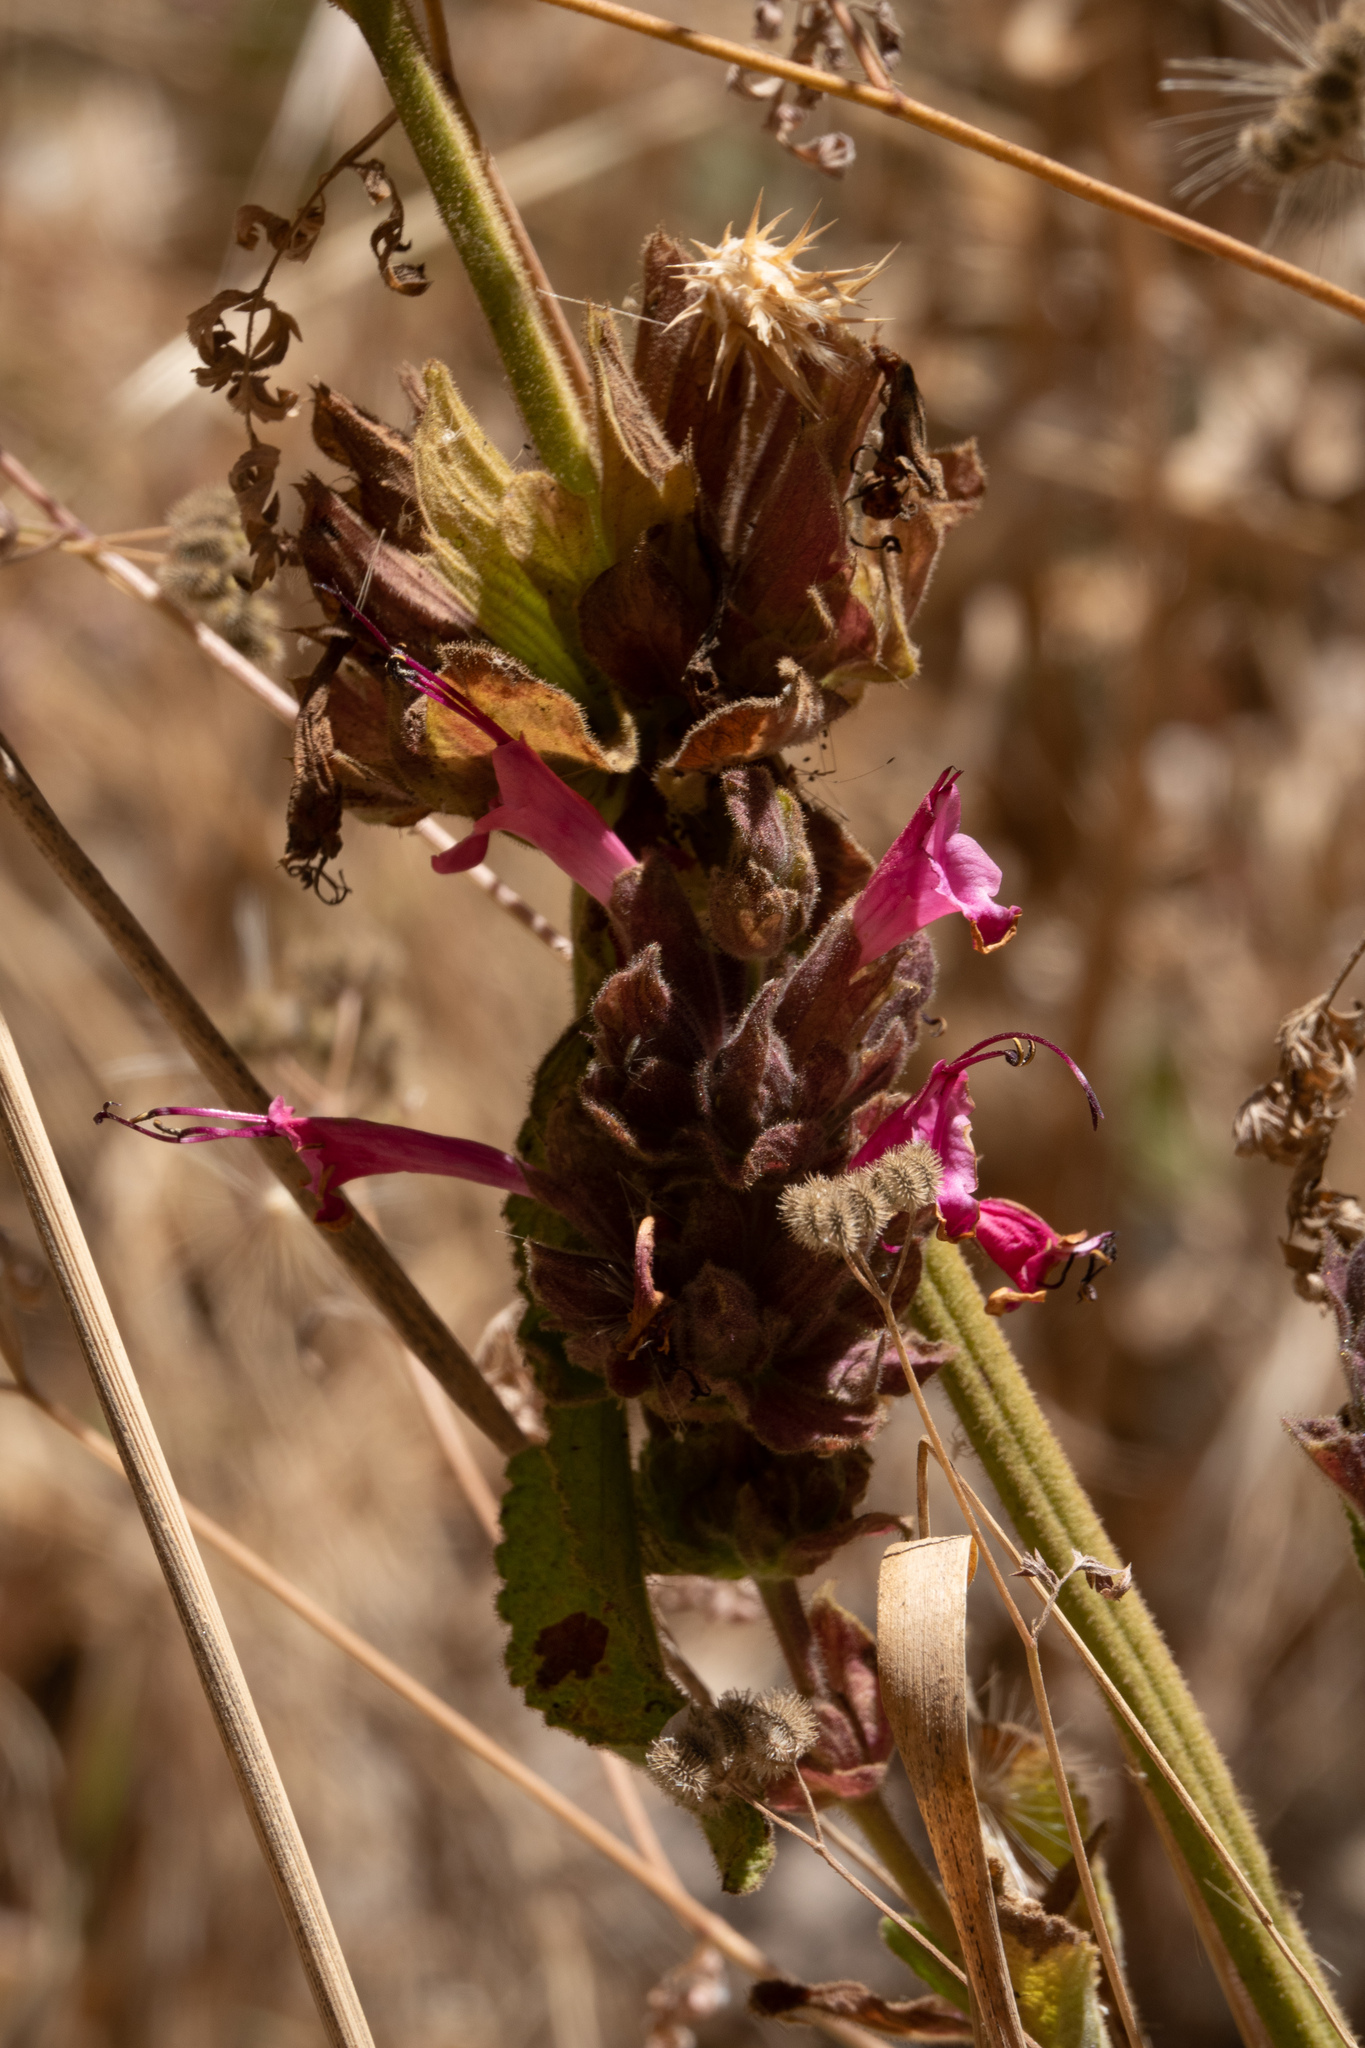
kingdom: Plantae
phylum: Tracheophyta
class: Magnoliopsida
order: Lamiales
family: Lamiaceae
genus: Salvia
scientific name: Salvia spathacea
